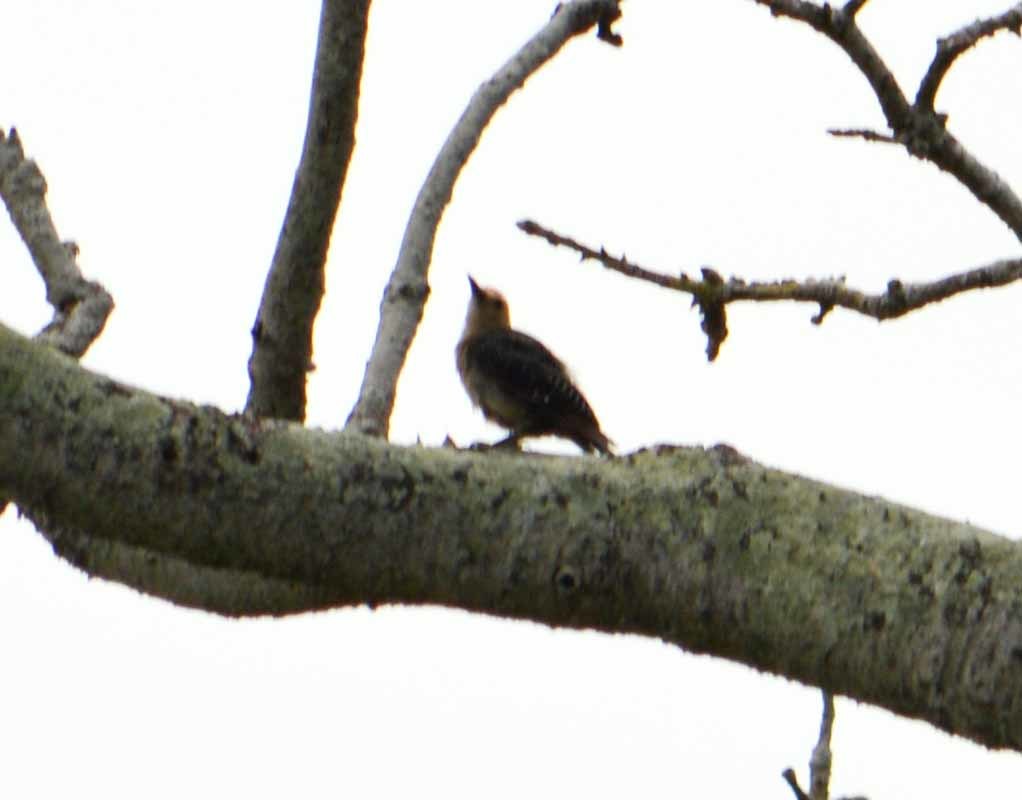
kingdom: Animalia
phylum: Chordata
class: Aves
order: Piciformes
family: Picidae
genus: Melanerpes
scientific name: Melanerpes aurifrons
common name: Golden-fronted woodpecker
